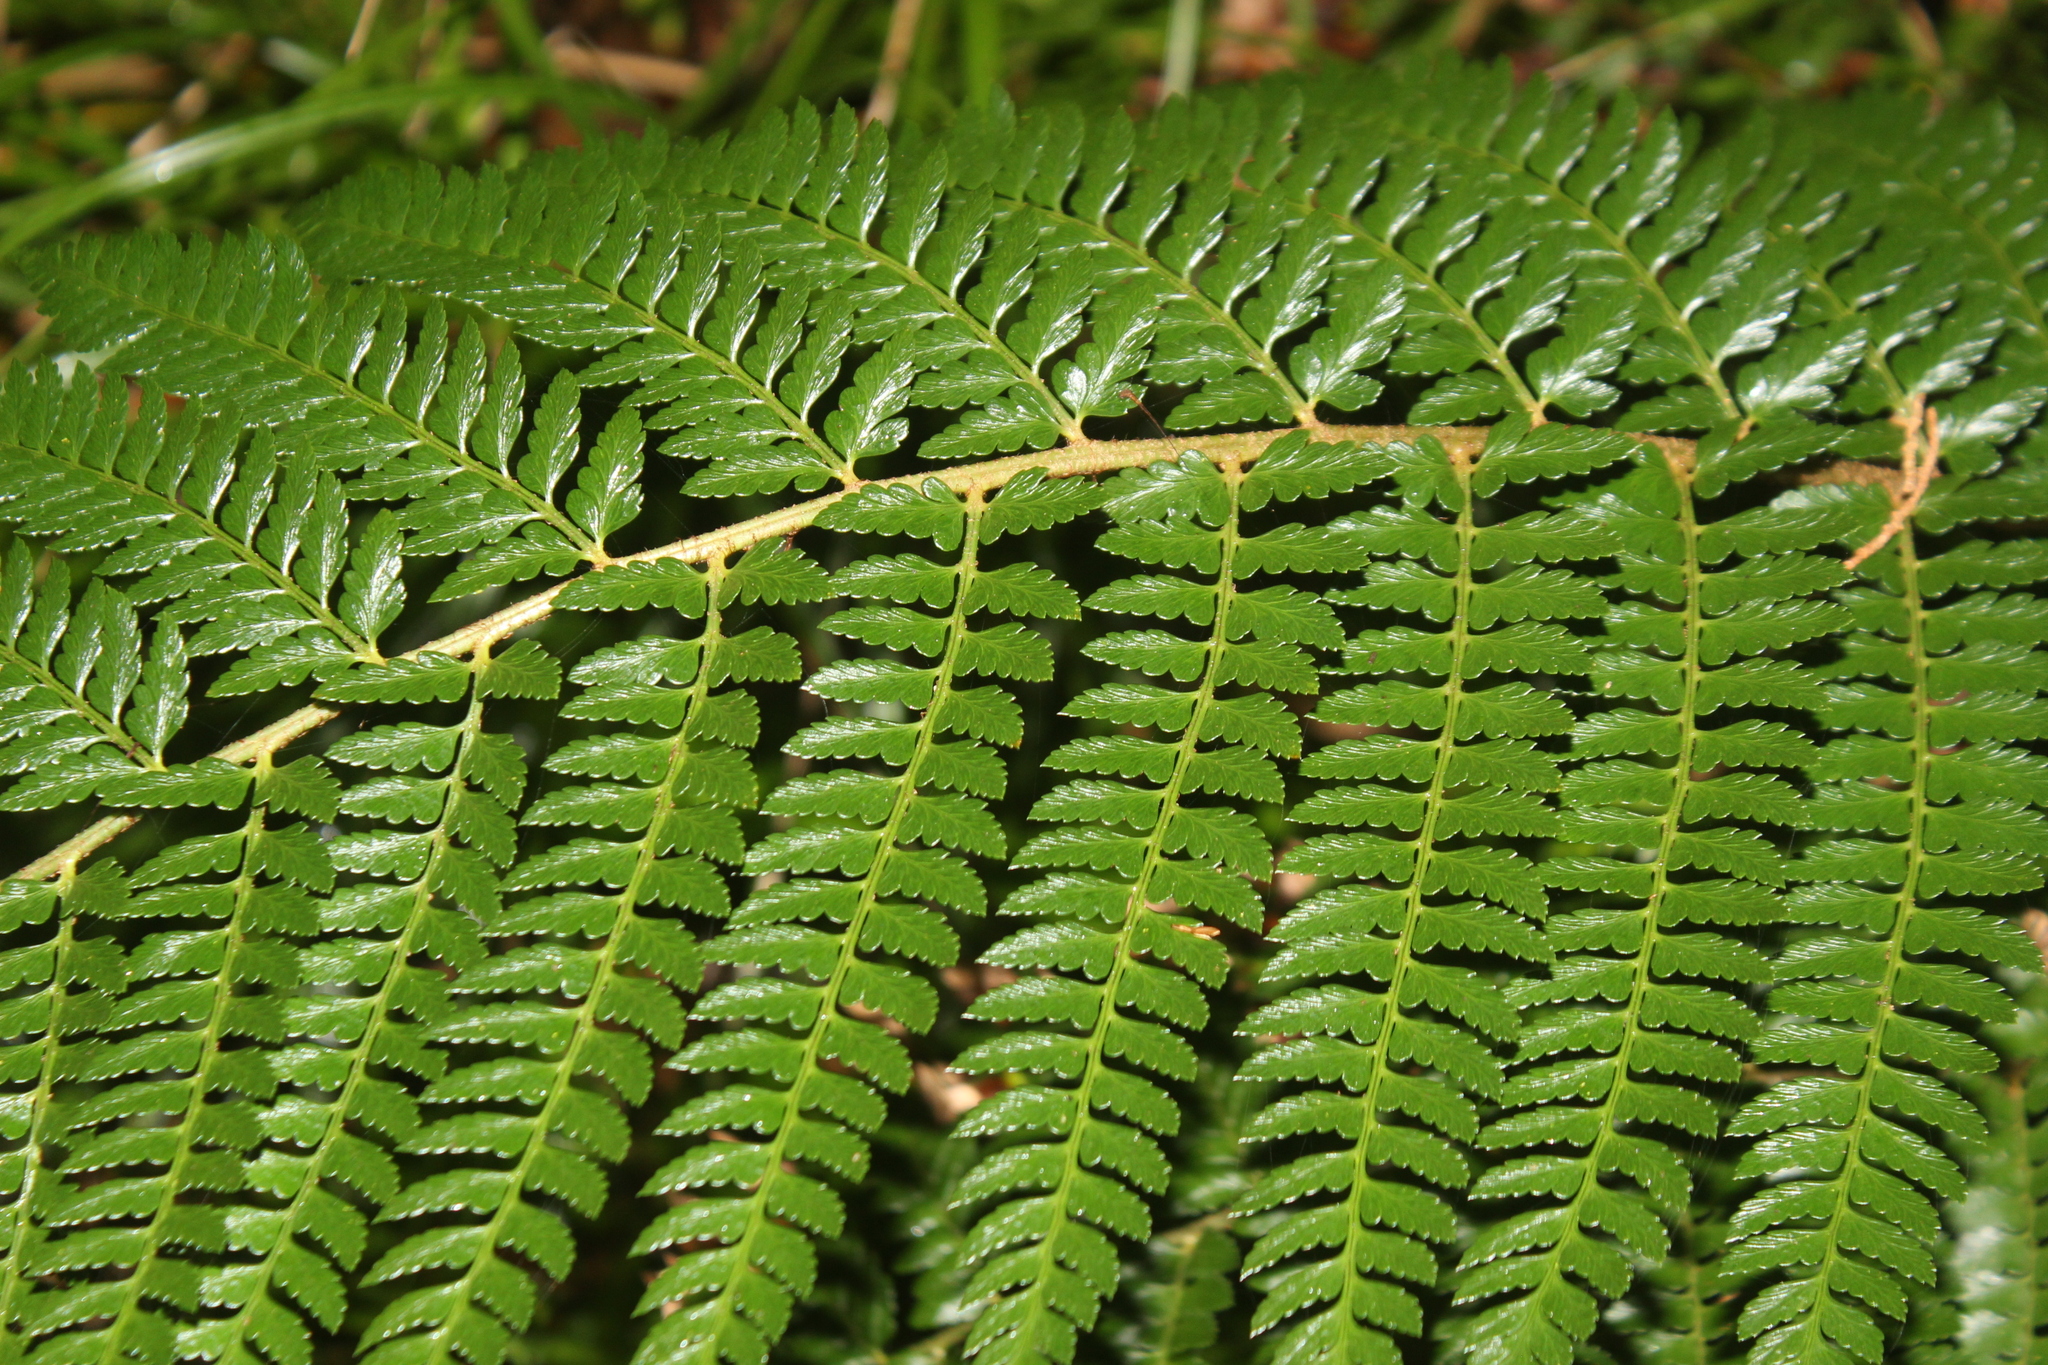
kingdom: Plantae
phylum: Tracheophyta
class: Polypodiopsida
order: Cyatheales
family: Dicksoniaceae
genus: Dicksonia
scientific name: Dicksonia fibrosa
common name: Golden tree fern
